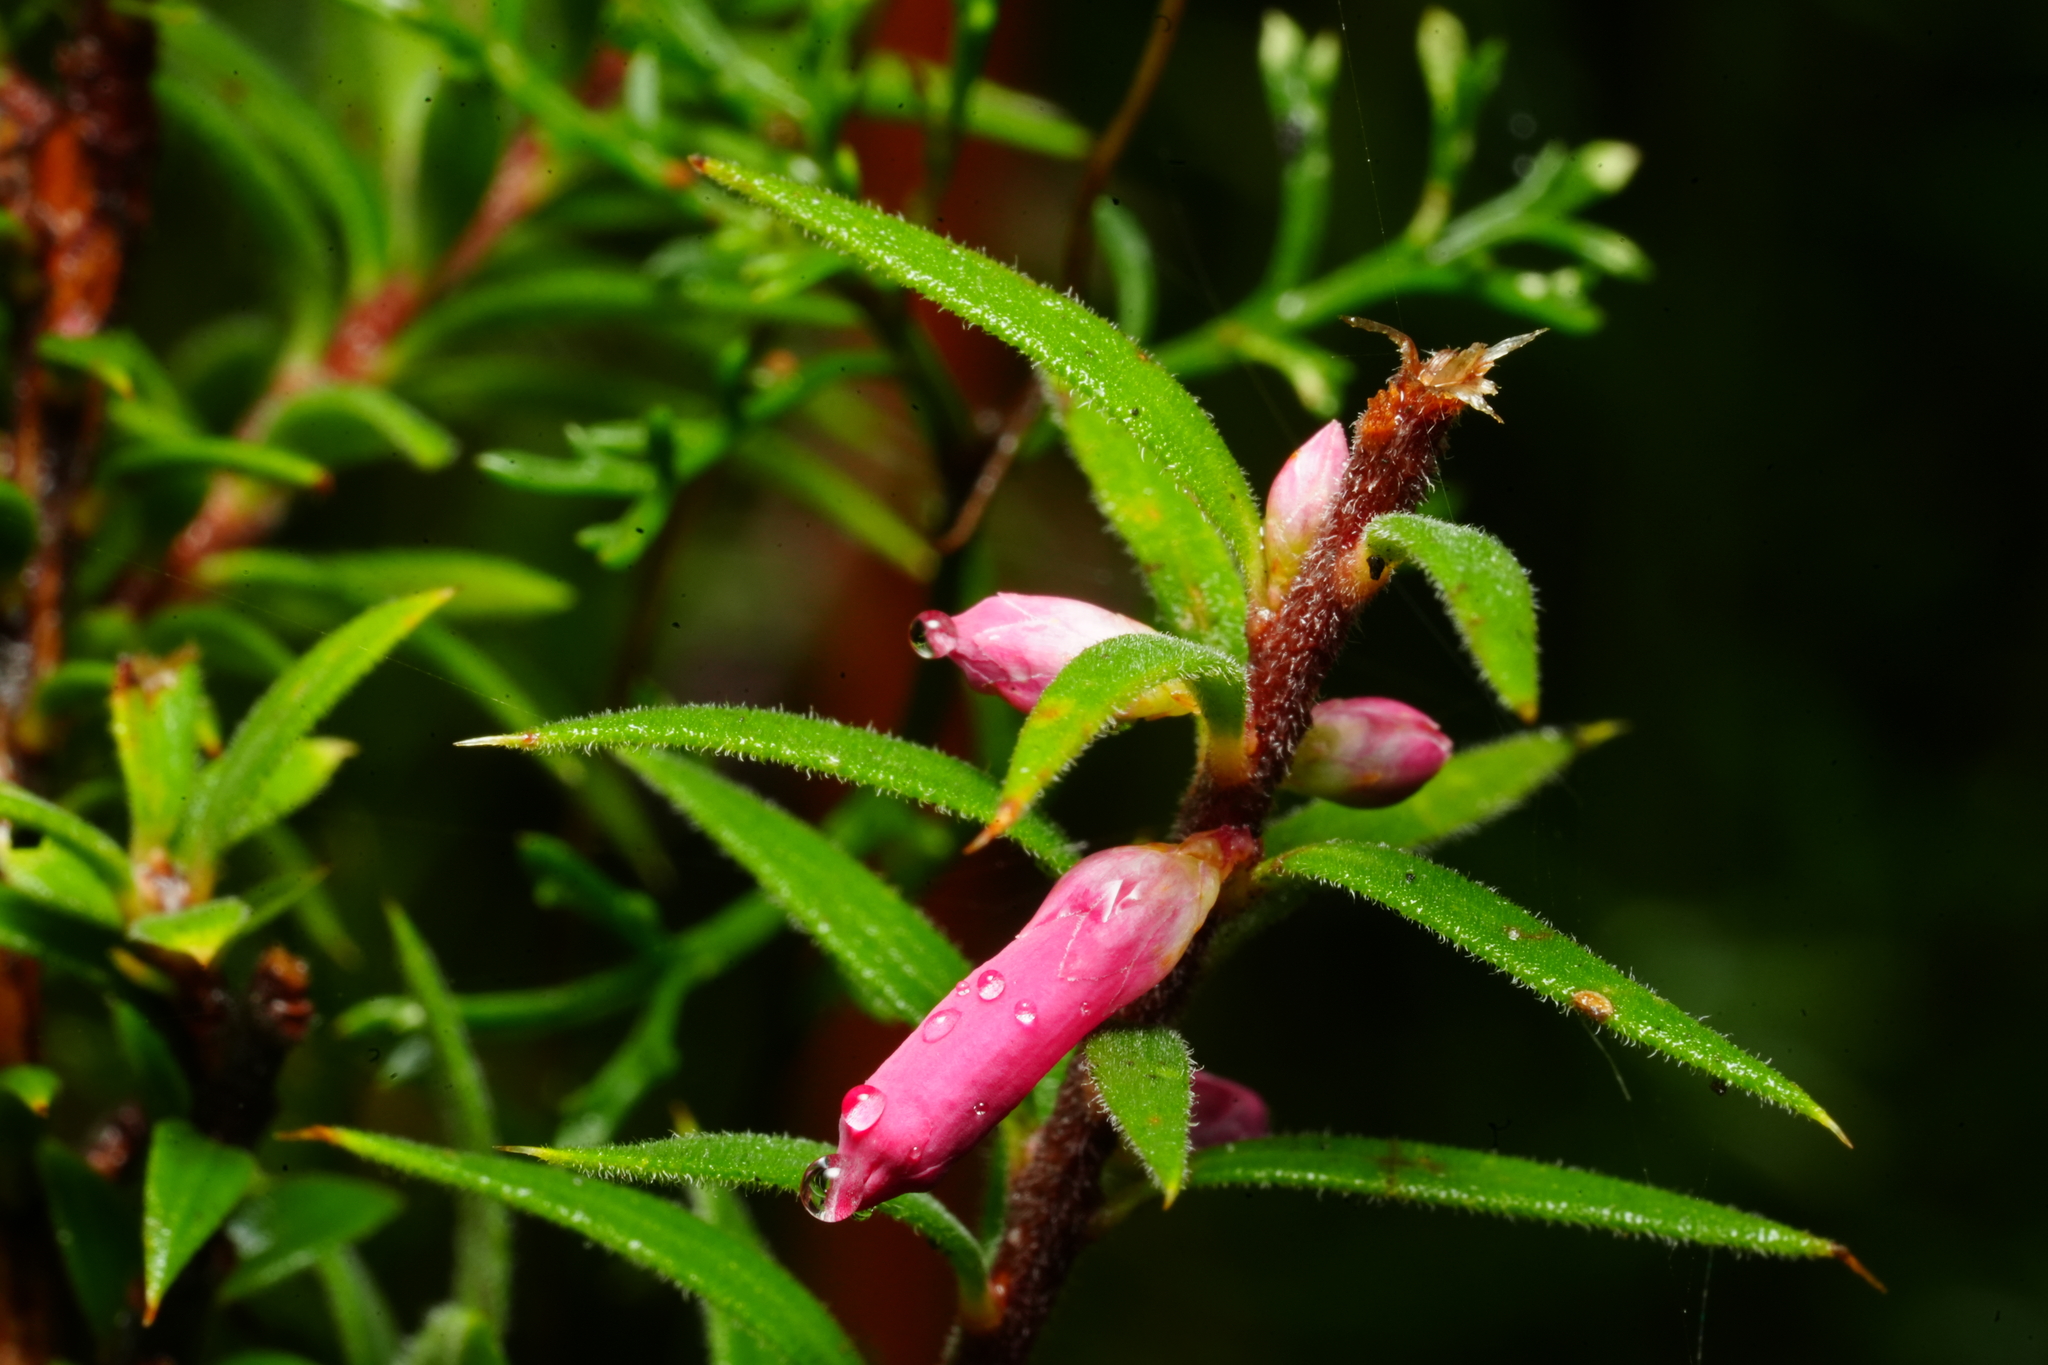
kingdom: Plantae
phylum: Tracheophyta
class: Magnoliopsida
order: Ericales
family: Ericaceae
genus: Epacris
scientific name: Epacris impressa
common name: Common-heath
